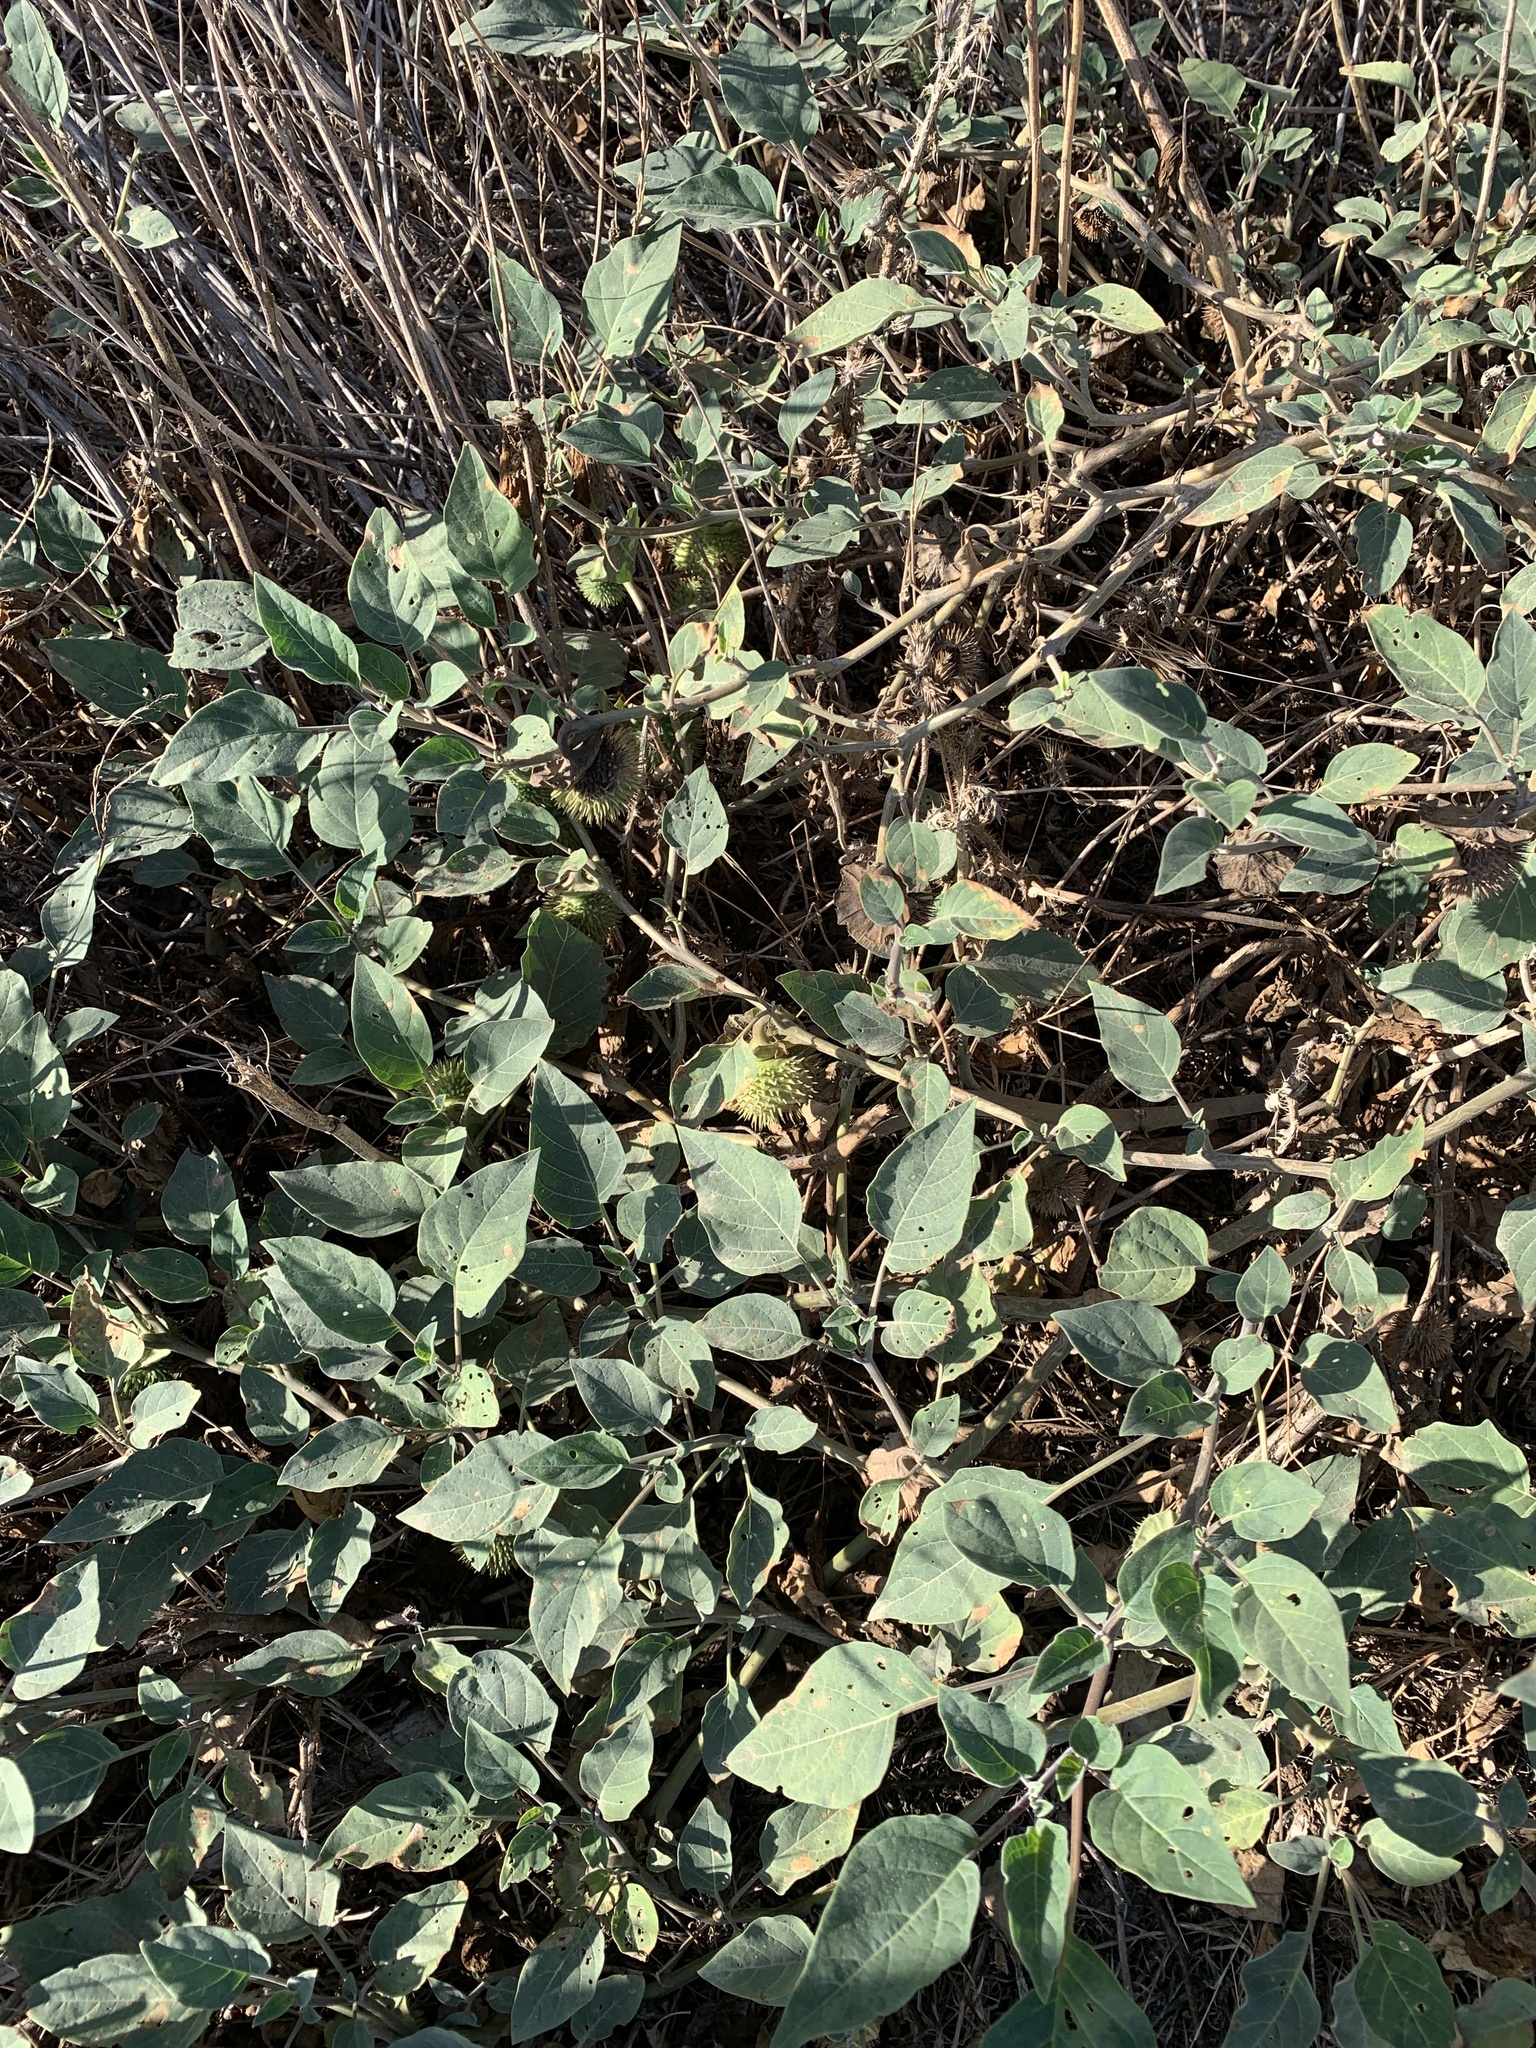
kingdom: Plantae
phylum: Tracheophyta
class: Magnoliopsida
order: Solanales
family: Solanaceae
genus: Datura
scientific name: Datura wrightii
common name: Sacred thorn-apple
